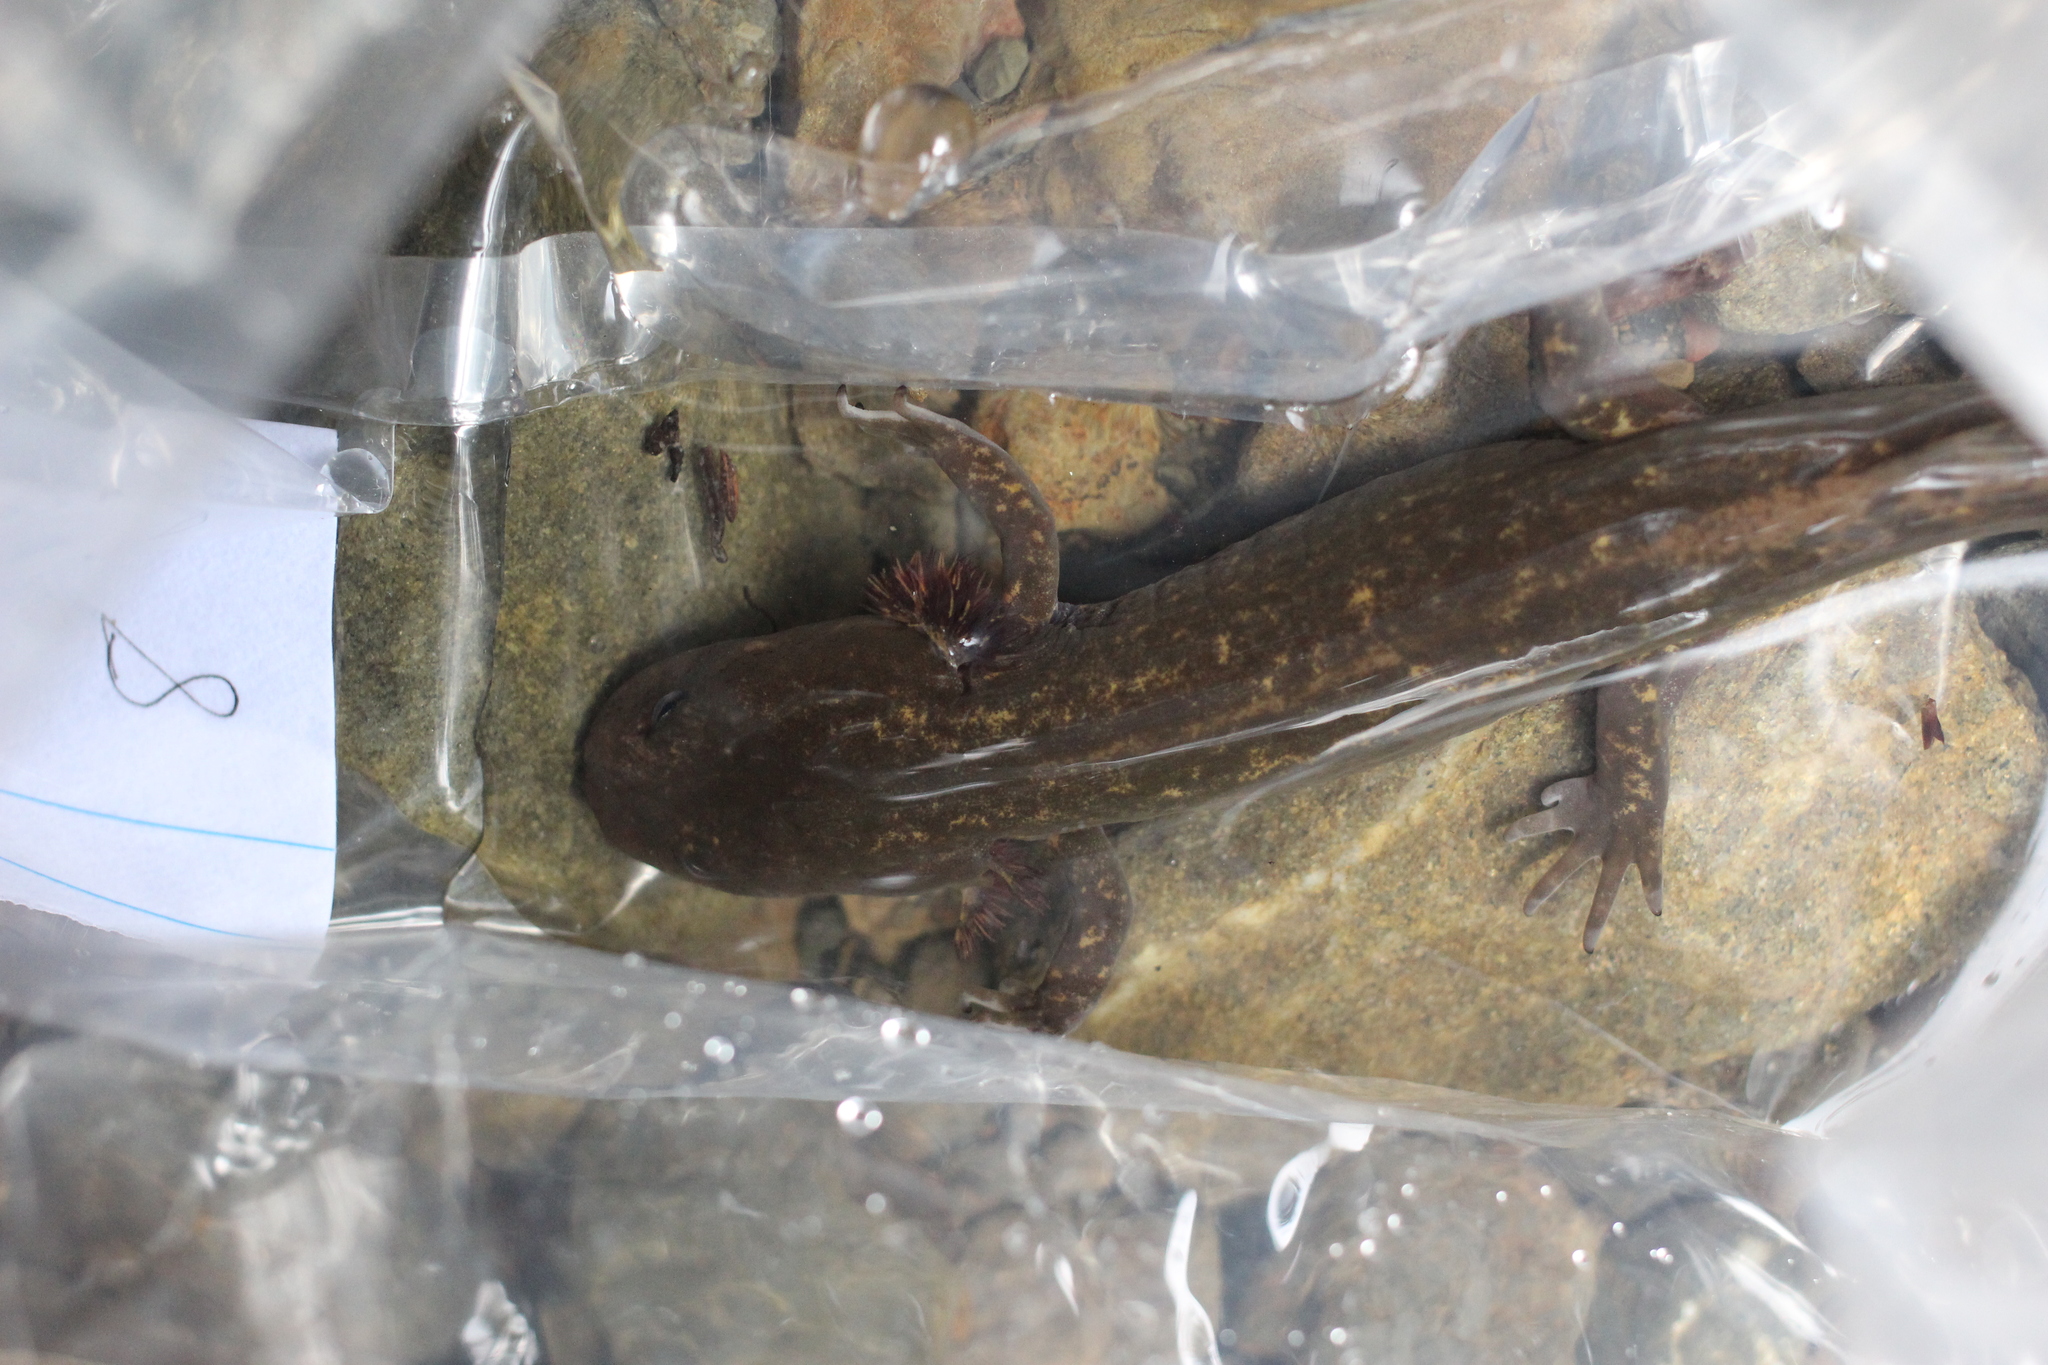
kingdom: Animalia
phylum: Chordata
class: Amphibia
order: Caudata
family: Ambystomatidae
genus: Dicamptodon
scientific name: Dicamptodon ensatus
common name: California giant salamander
